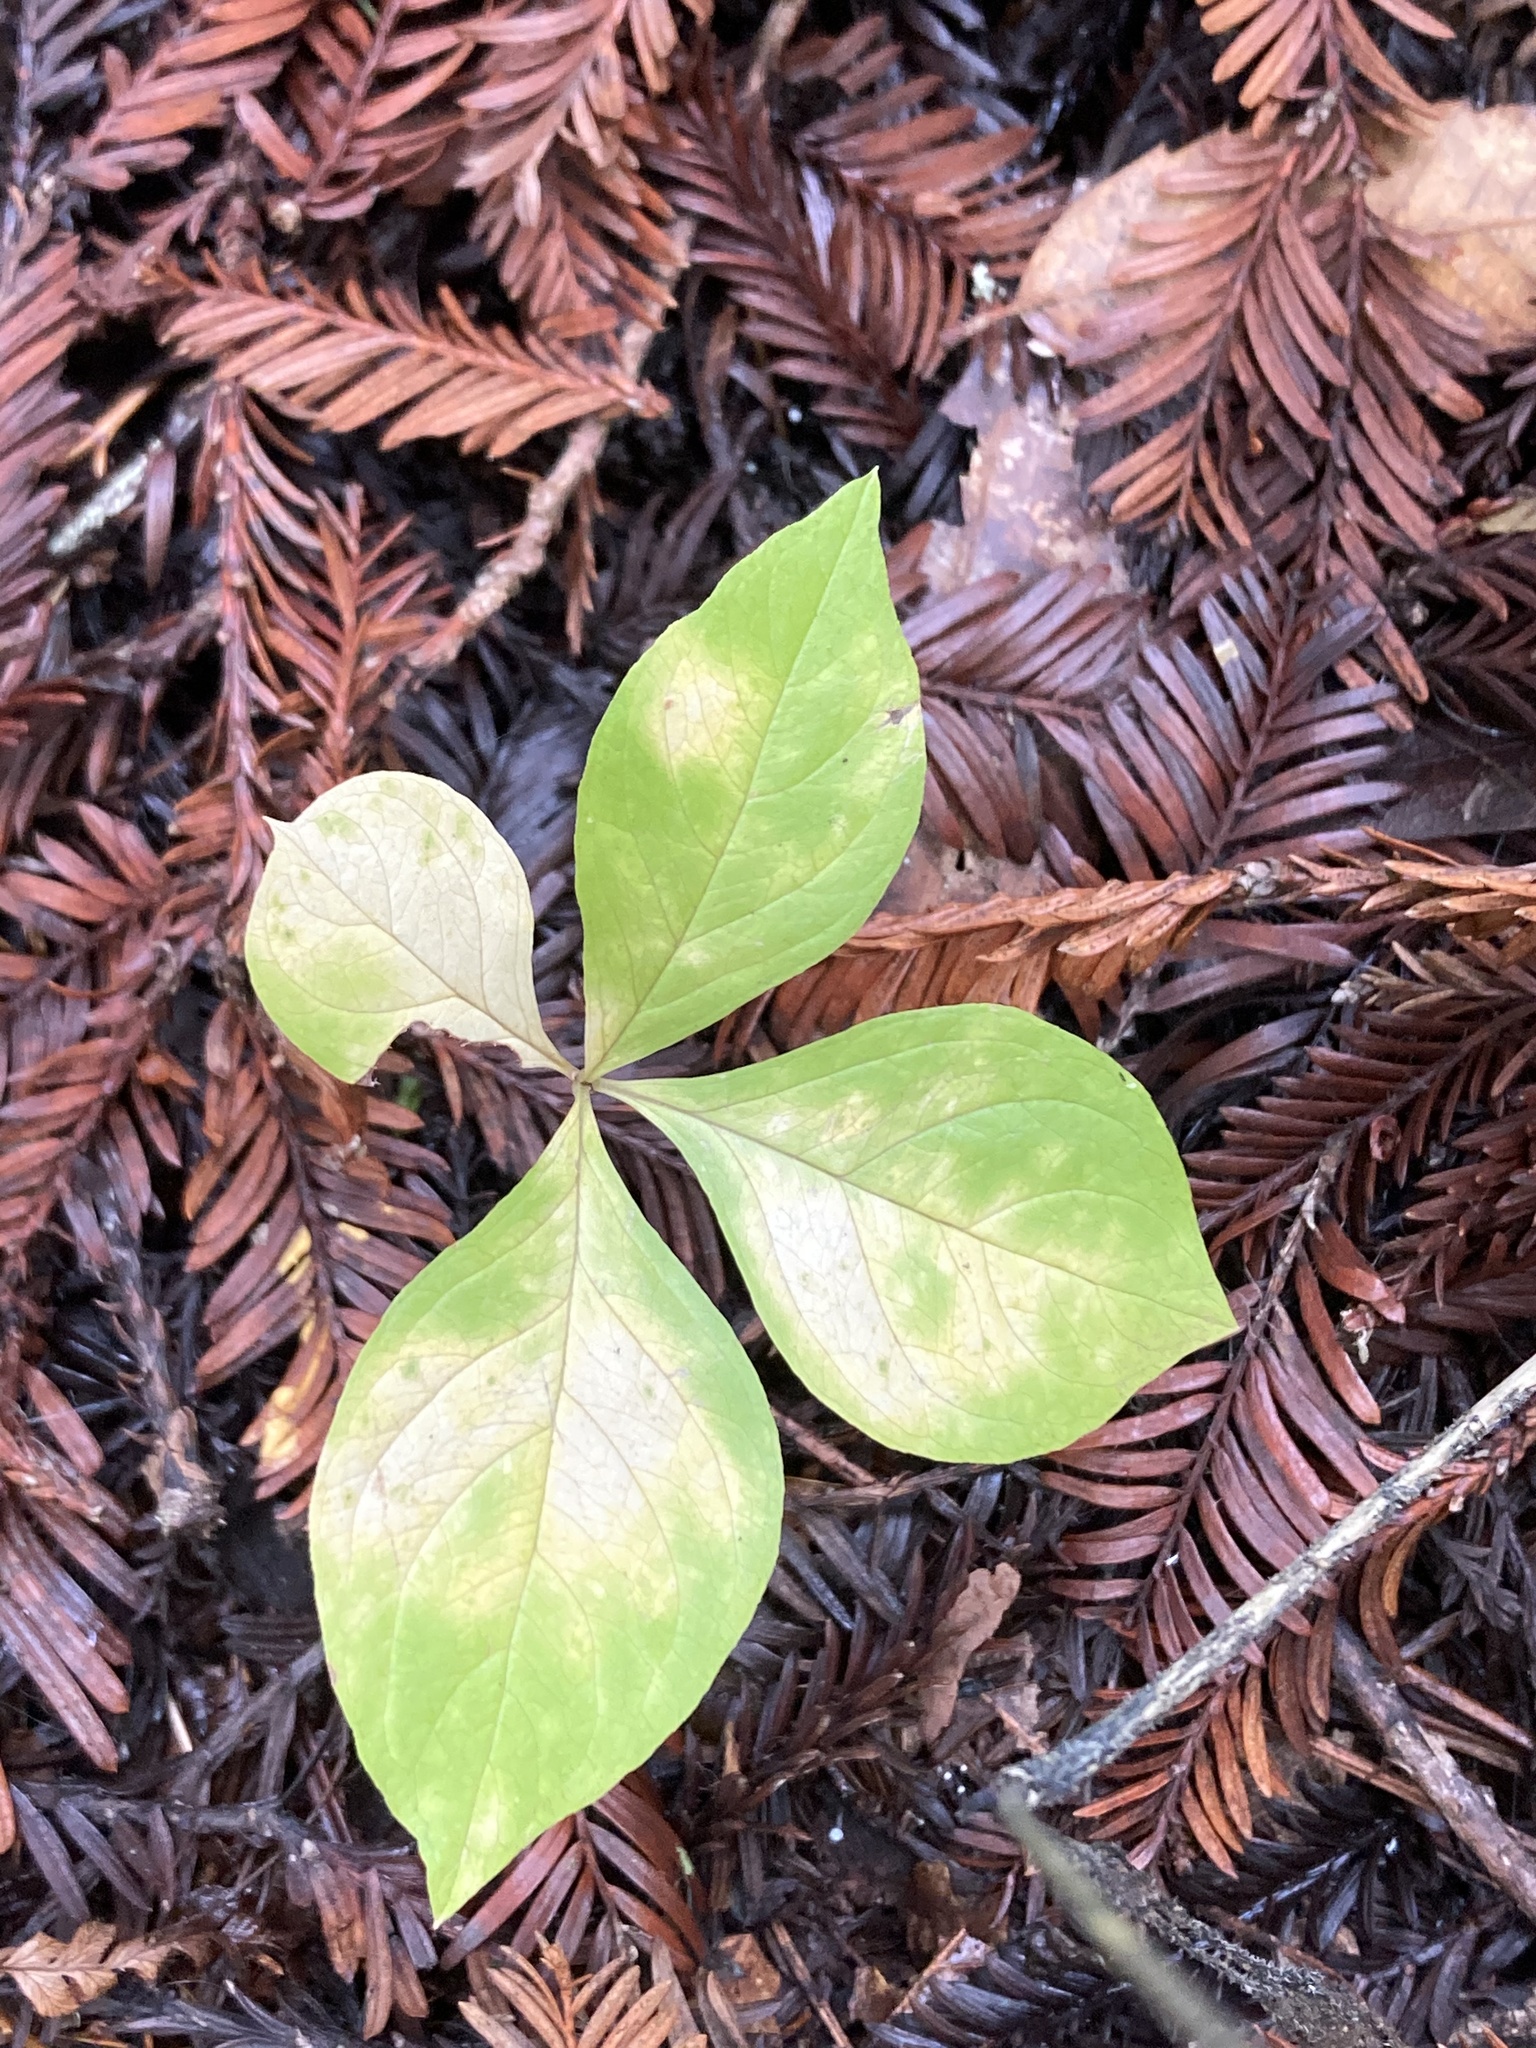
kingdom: Plantae
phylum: Tracheophyta
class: Magnoliopsida
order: Ericales
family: Primulaceae
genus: Lysimachia
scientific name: Lysimachia latifolia
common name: Pacific starflower
